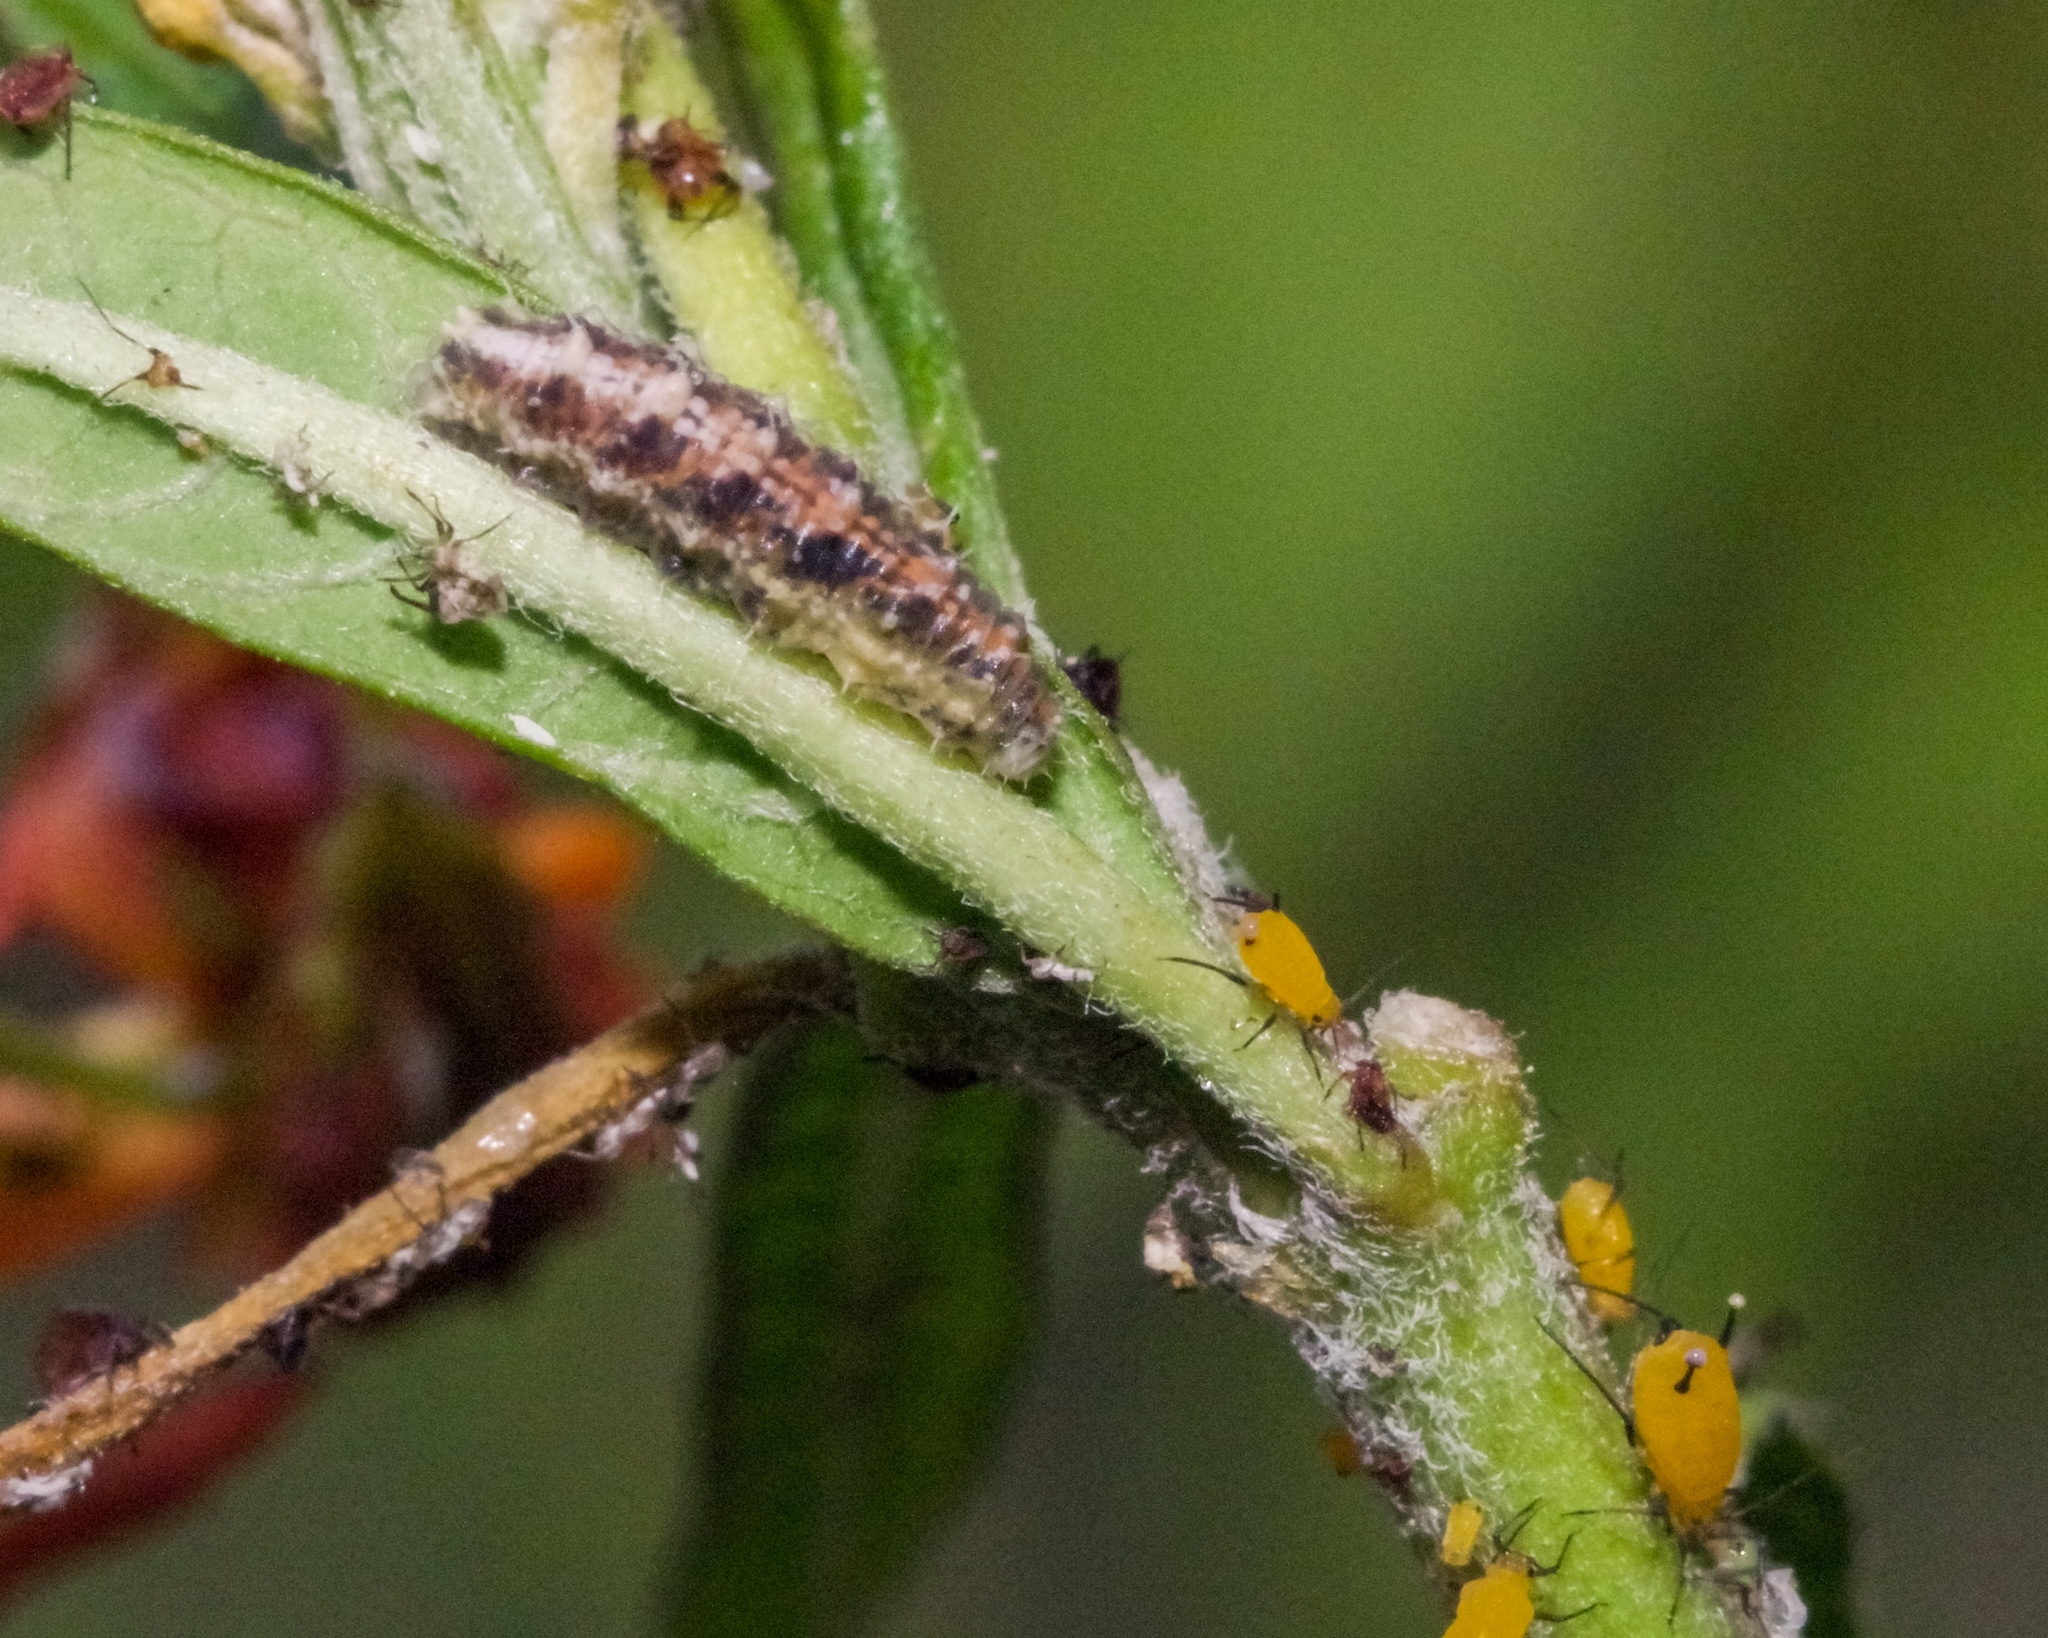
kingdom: Animalia
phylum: Arthropoda
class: Insecta
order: Diptera
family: Syrphidae
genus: Dioprosopa
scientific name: Dioprosopa clavatus
